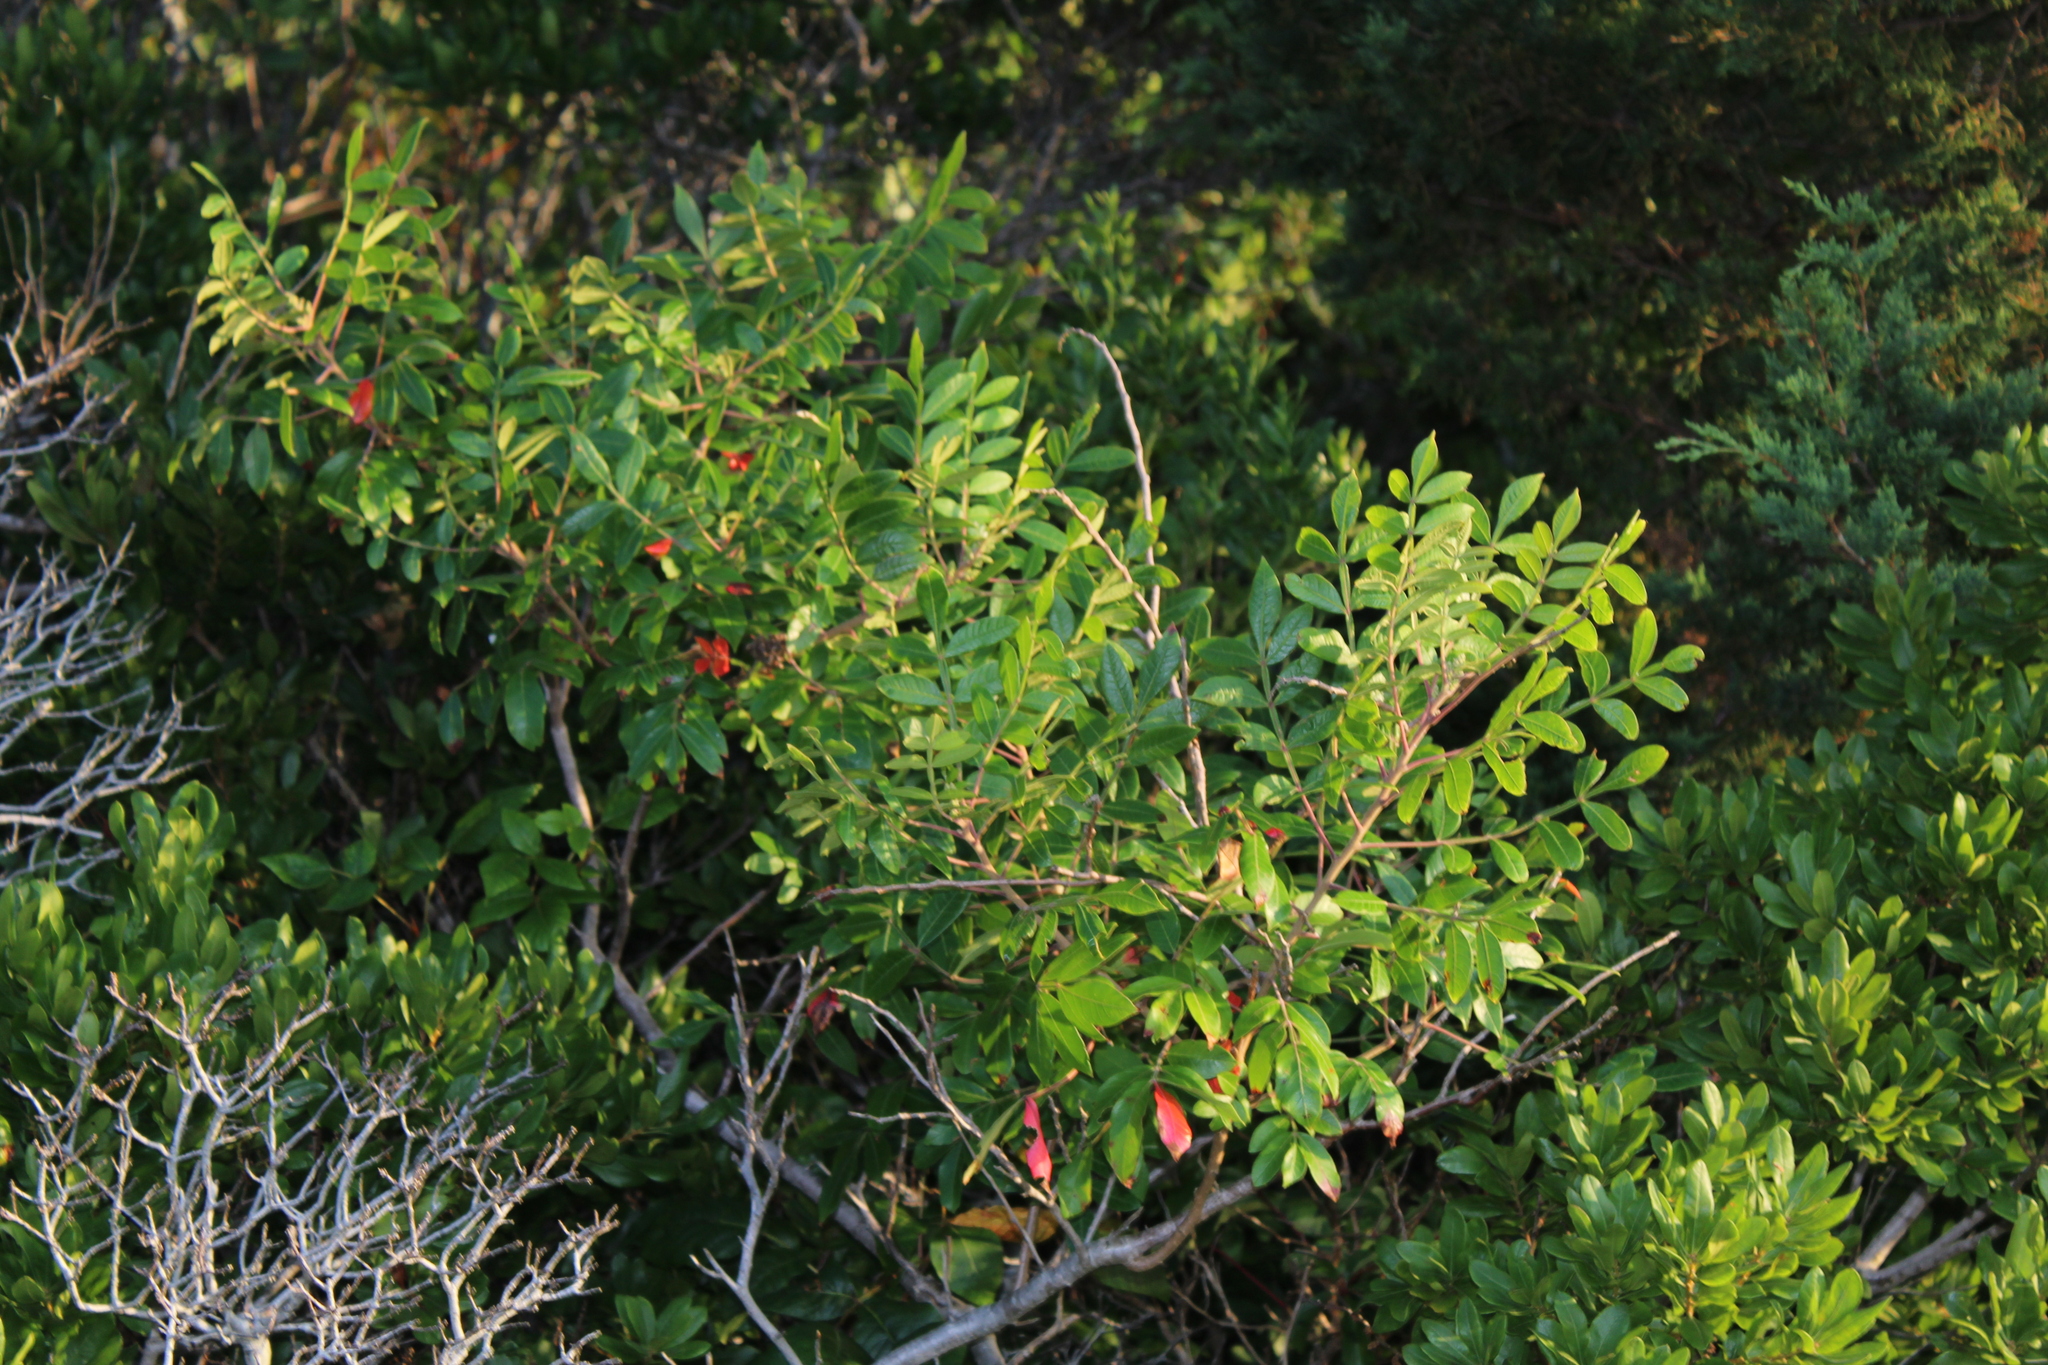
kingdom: Plantae
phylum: Tracheophyta
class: Magnoliopsida
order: Sapindales
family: Anacardiaceae
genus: Rhus
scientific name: Rhus copallina
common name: Shining sumac
